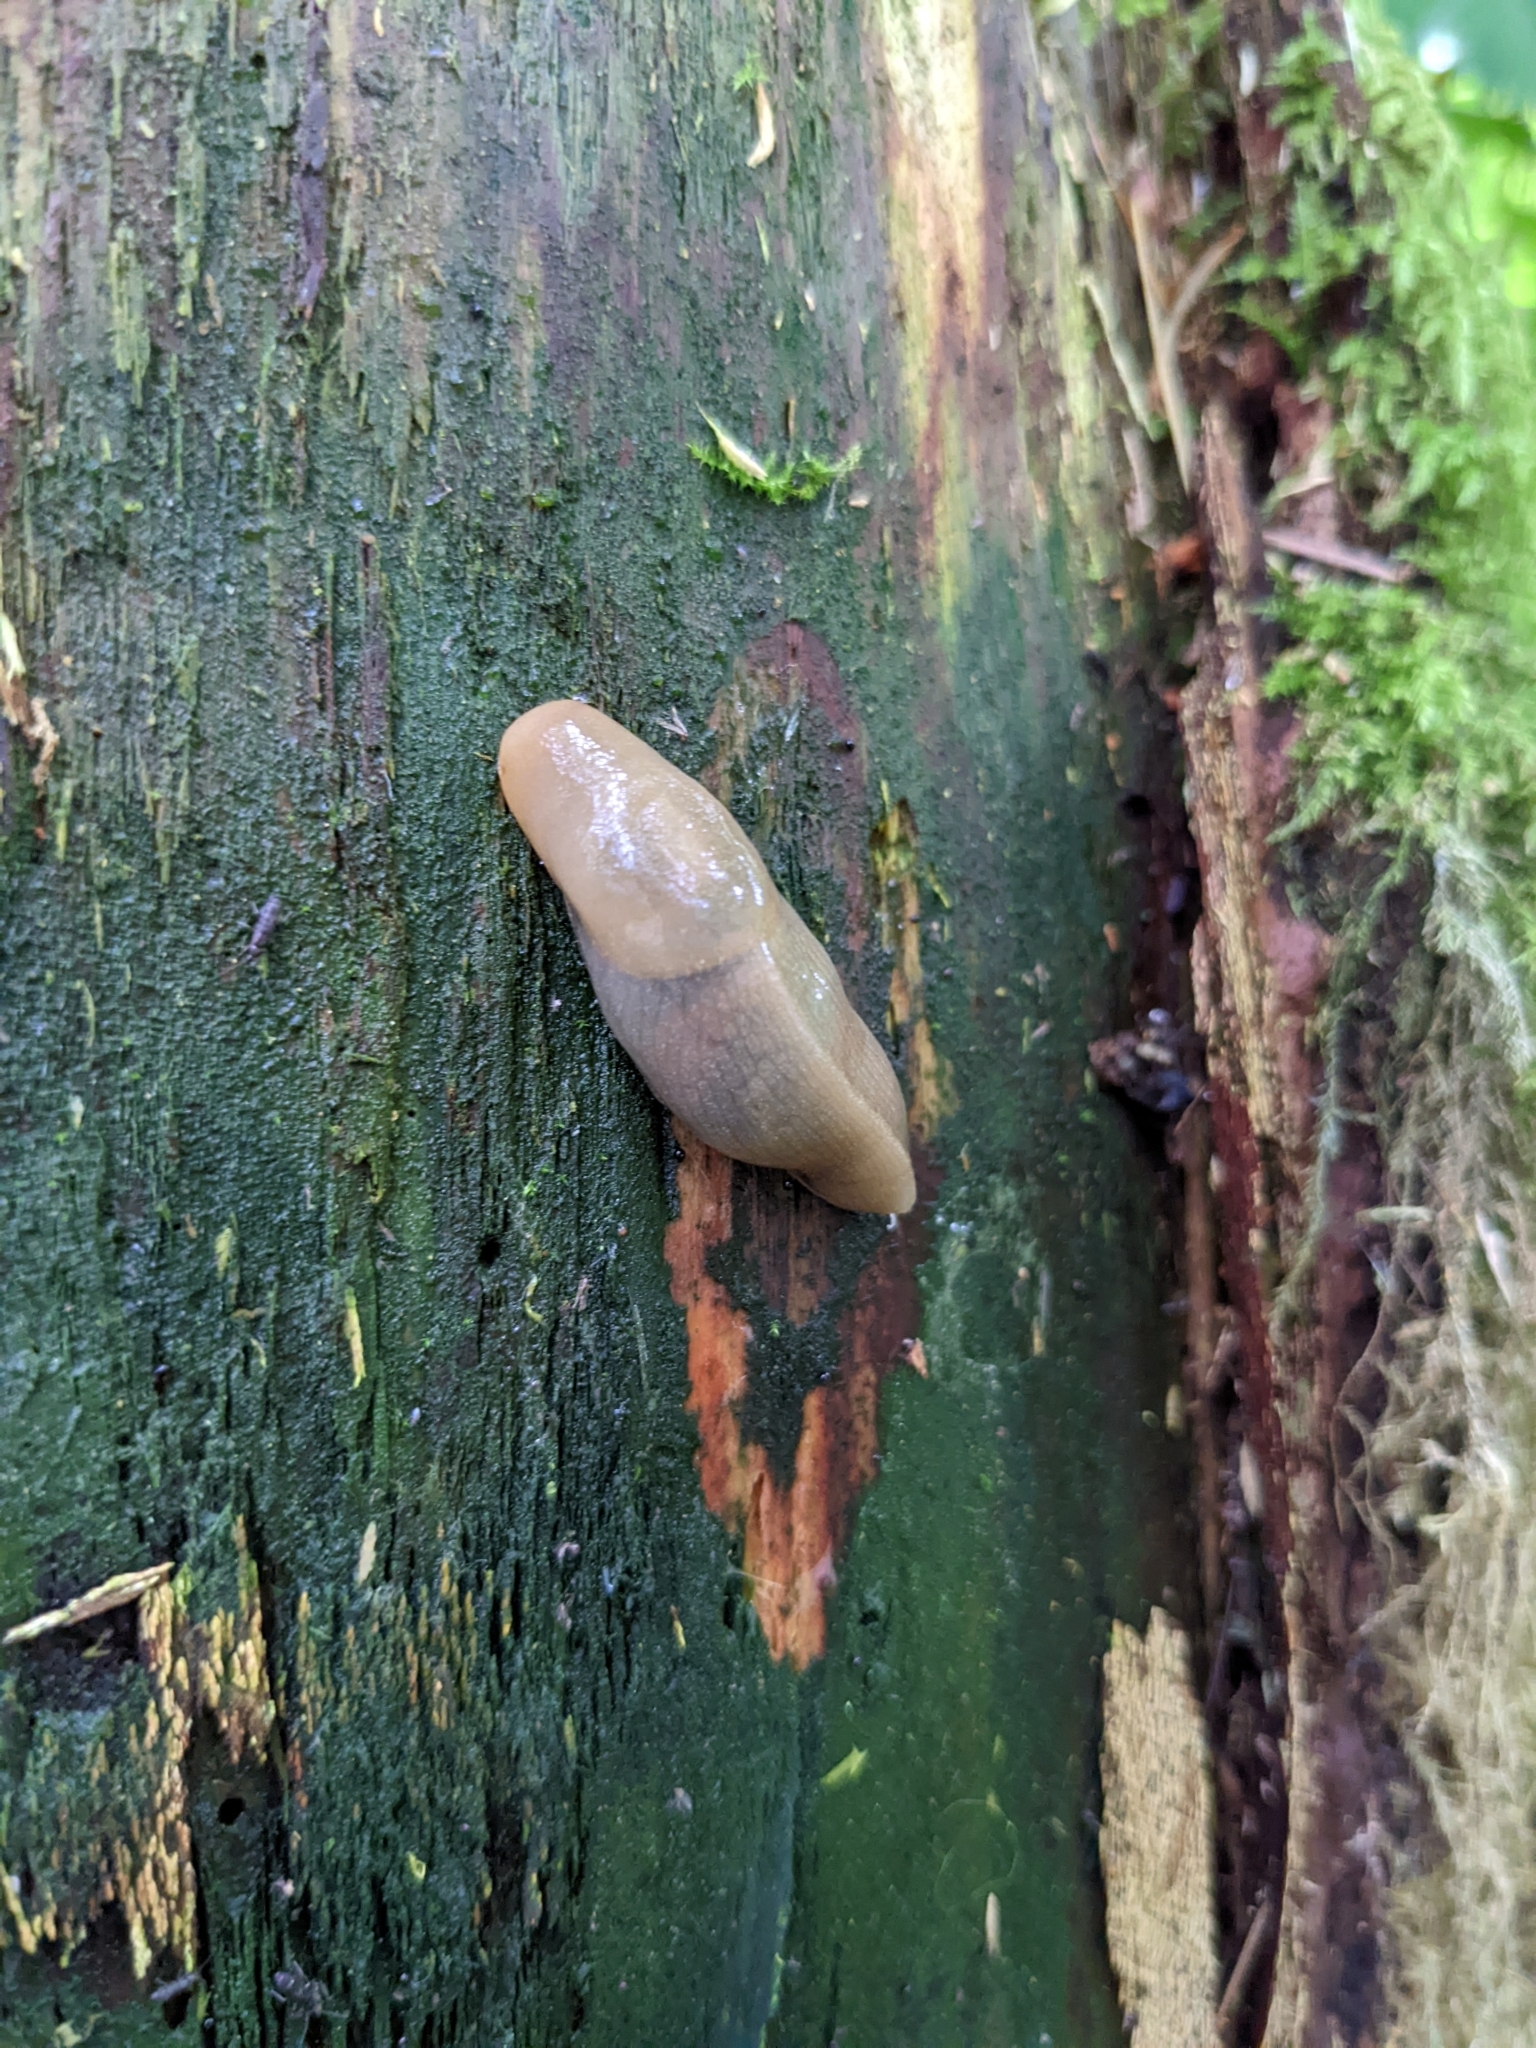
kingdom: Animalia
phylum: Mollusca
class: Gastropoda
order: Stylommatophora
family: Ariolimacidae
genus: Ariolimax
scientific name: Ariolimax columbianus
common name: Pacific banana slug
